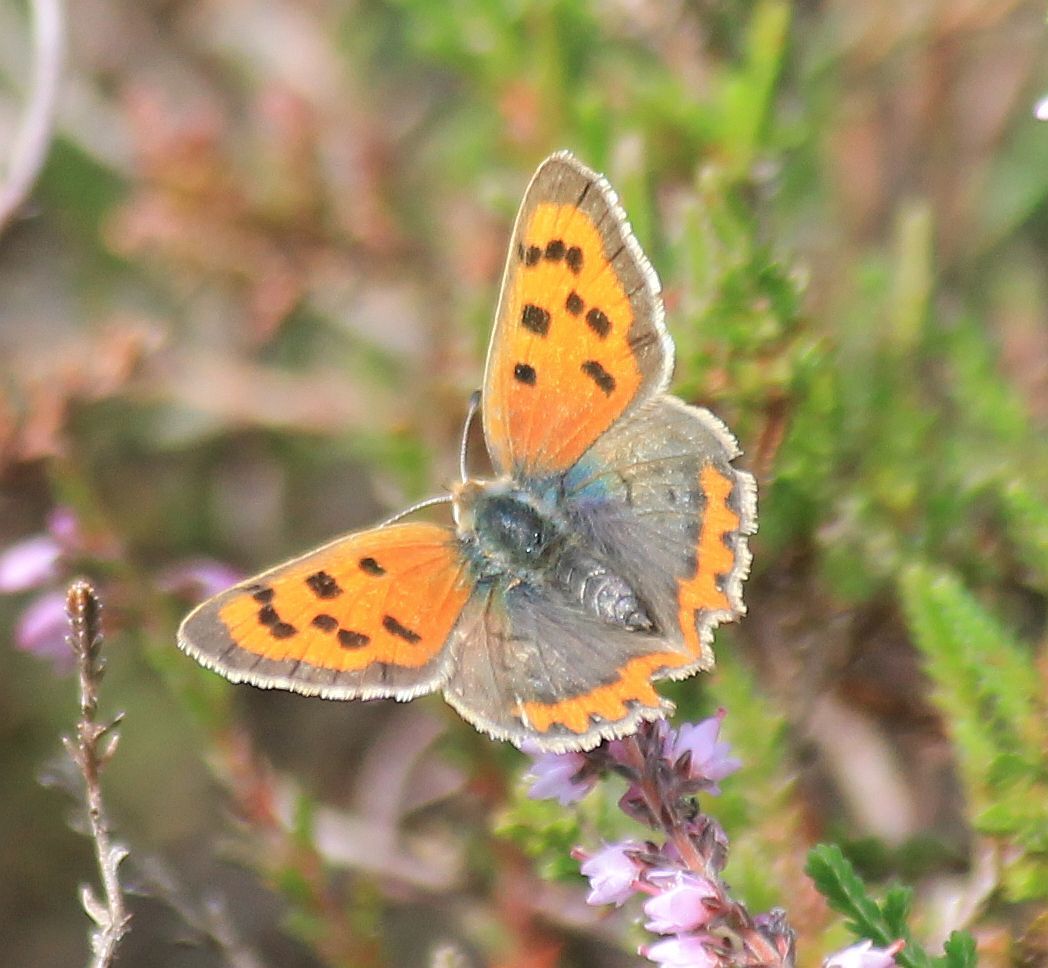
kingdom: Animalia
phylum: Arthropoda
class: Insecta
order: Lepidoptera
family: Lycaenidae
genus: Lycaena
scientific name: Lycaena phlaeas
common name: Small copper
